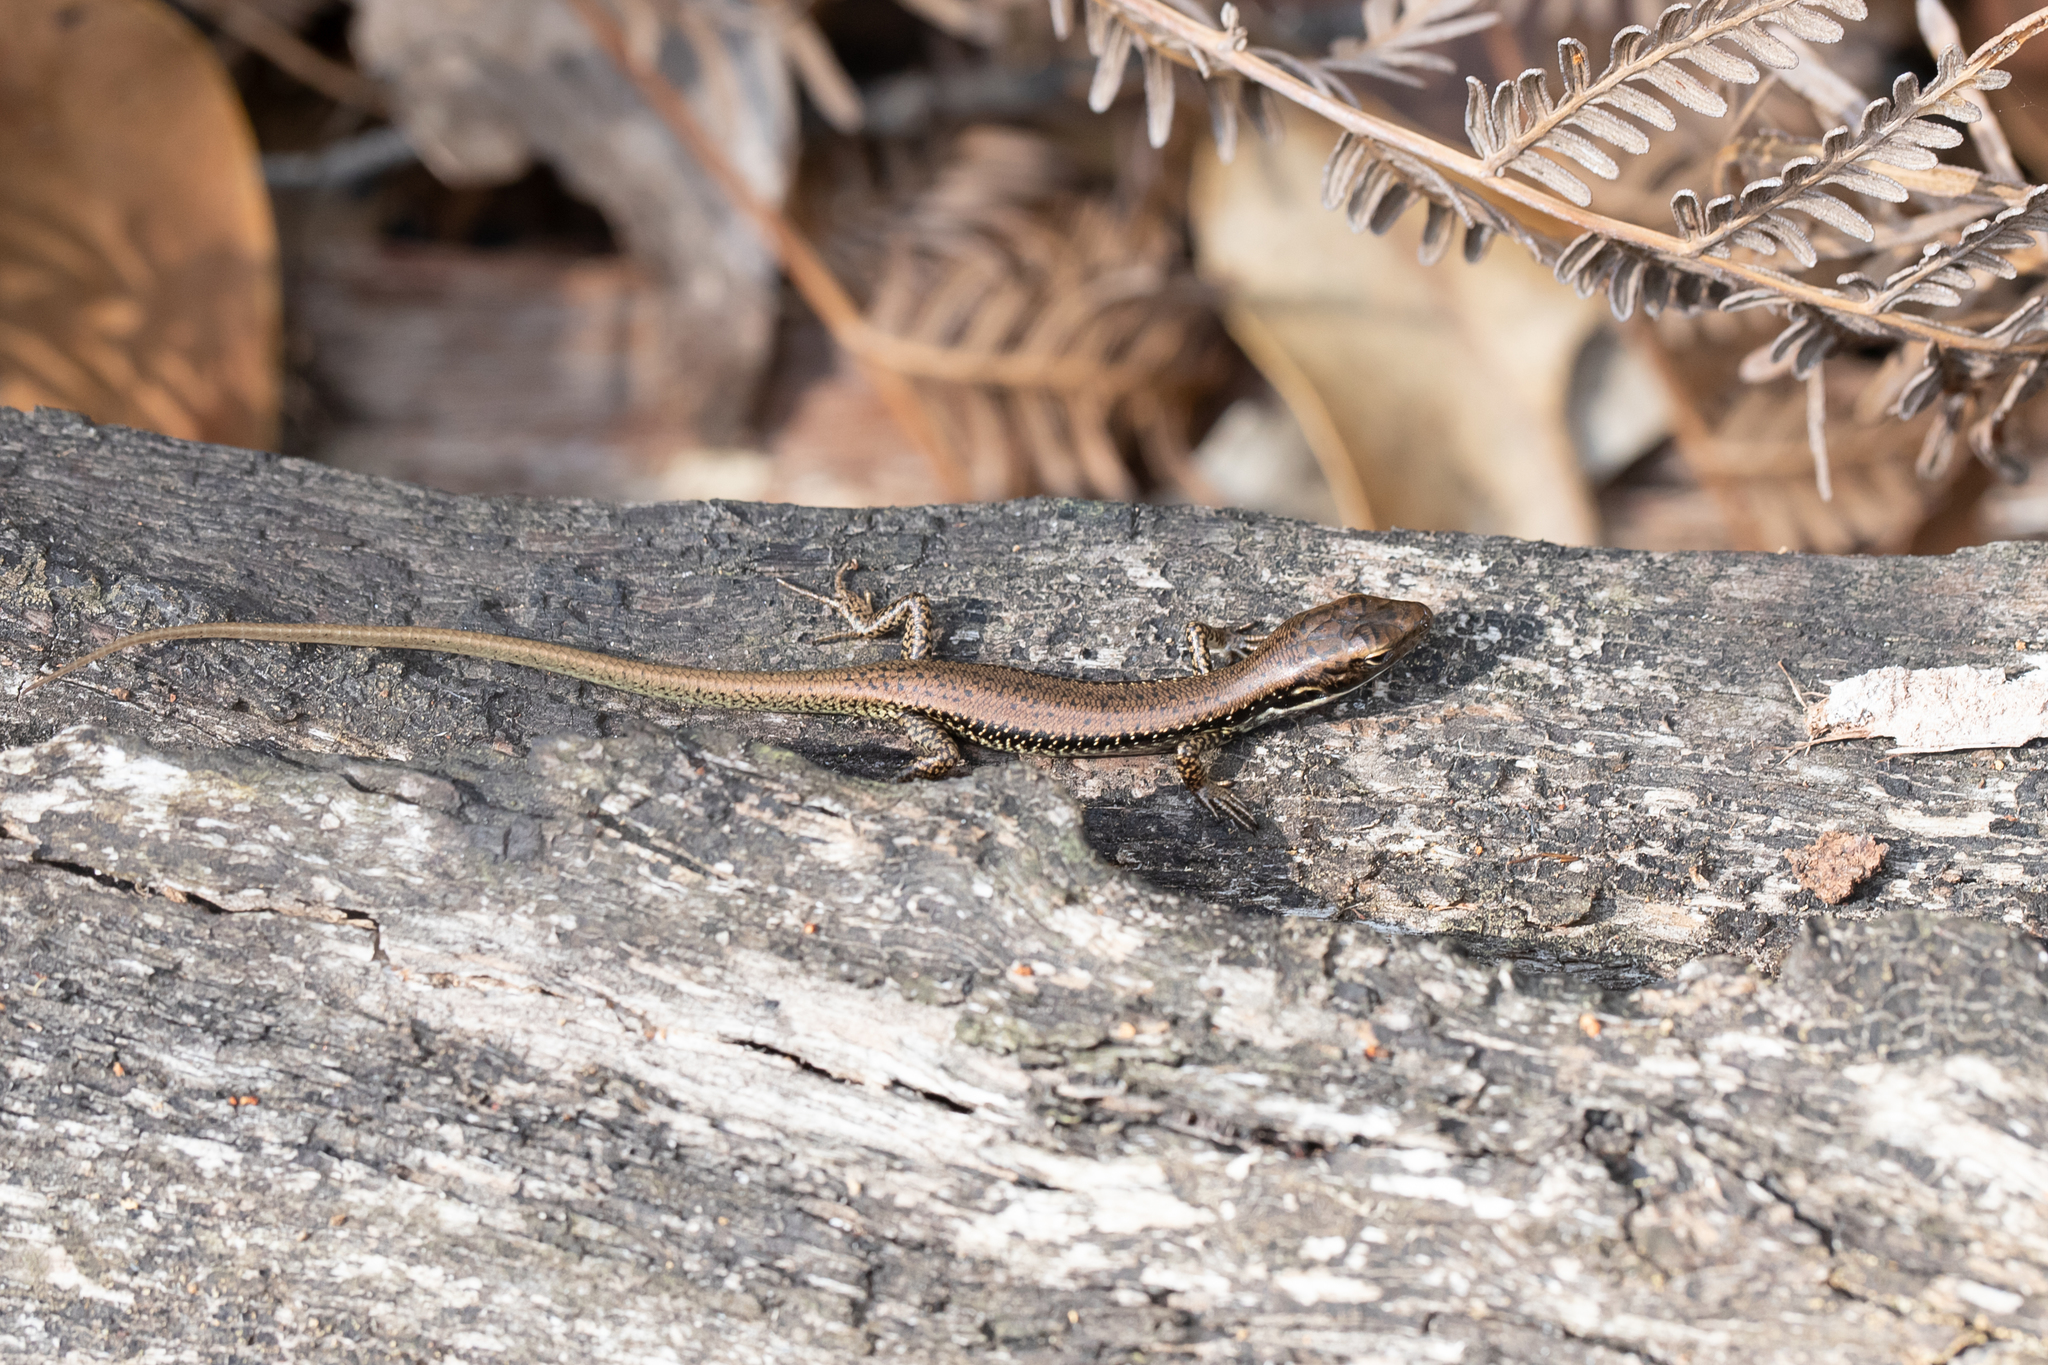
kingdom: Animalia
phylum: Chordata
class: Squamata
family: Scincidae
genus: Eulamprus
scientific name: Eulamprus tympanum
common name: Cool-temperate water-skink
